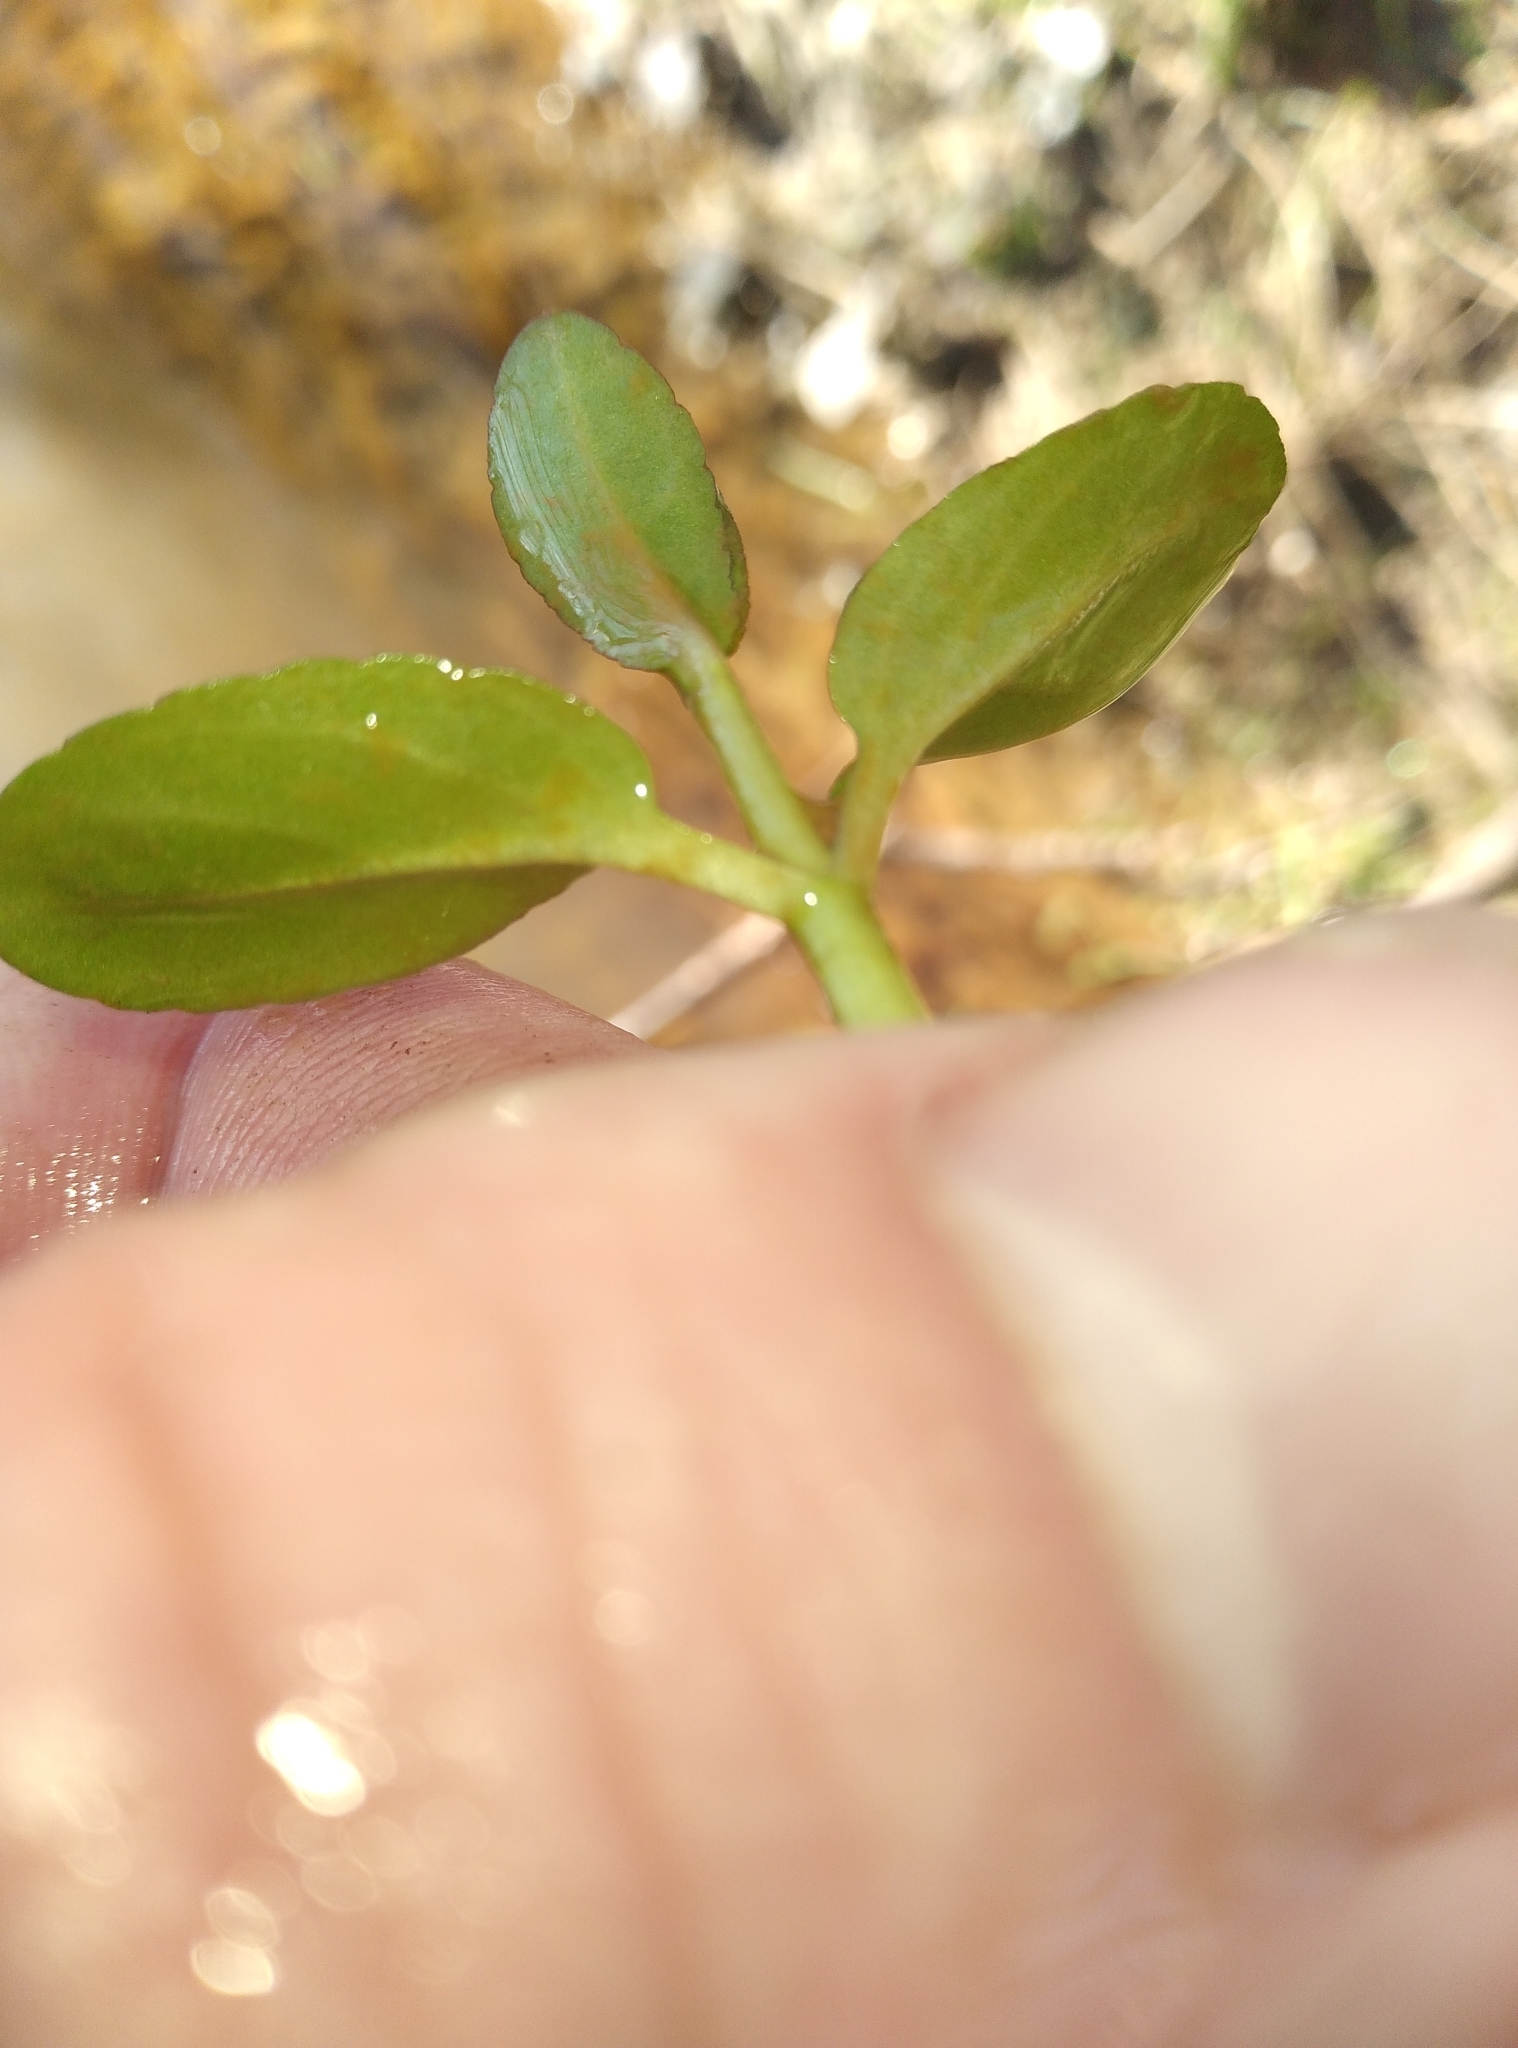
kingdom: Plantae
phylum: Tracheophyta
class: Magnoliopsida
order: Lamiales
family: Plantaginaceae
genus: Veronica
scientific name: Veronica americana
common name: American brooklime
